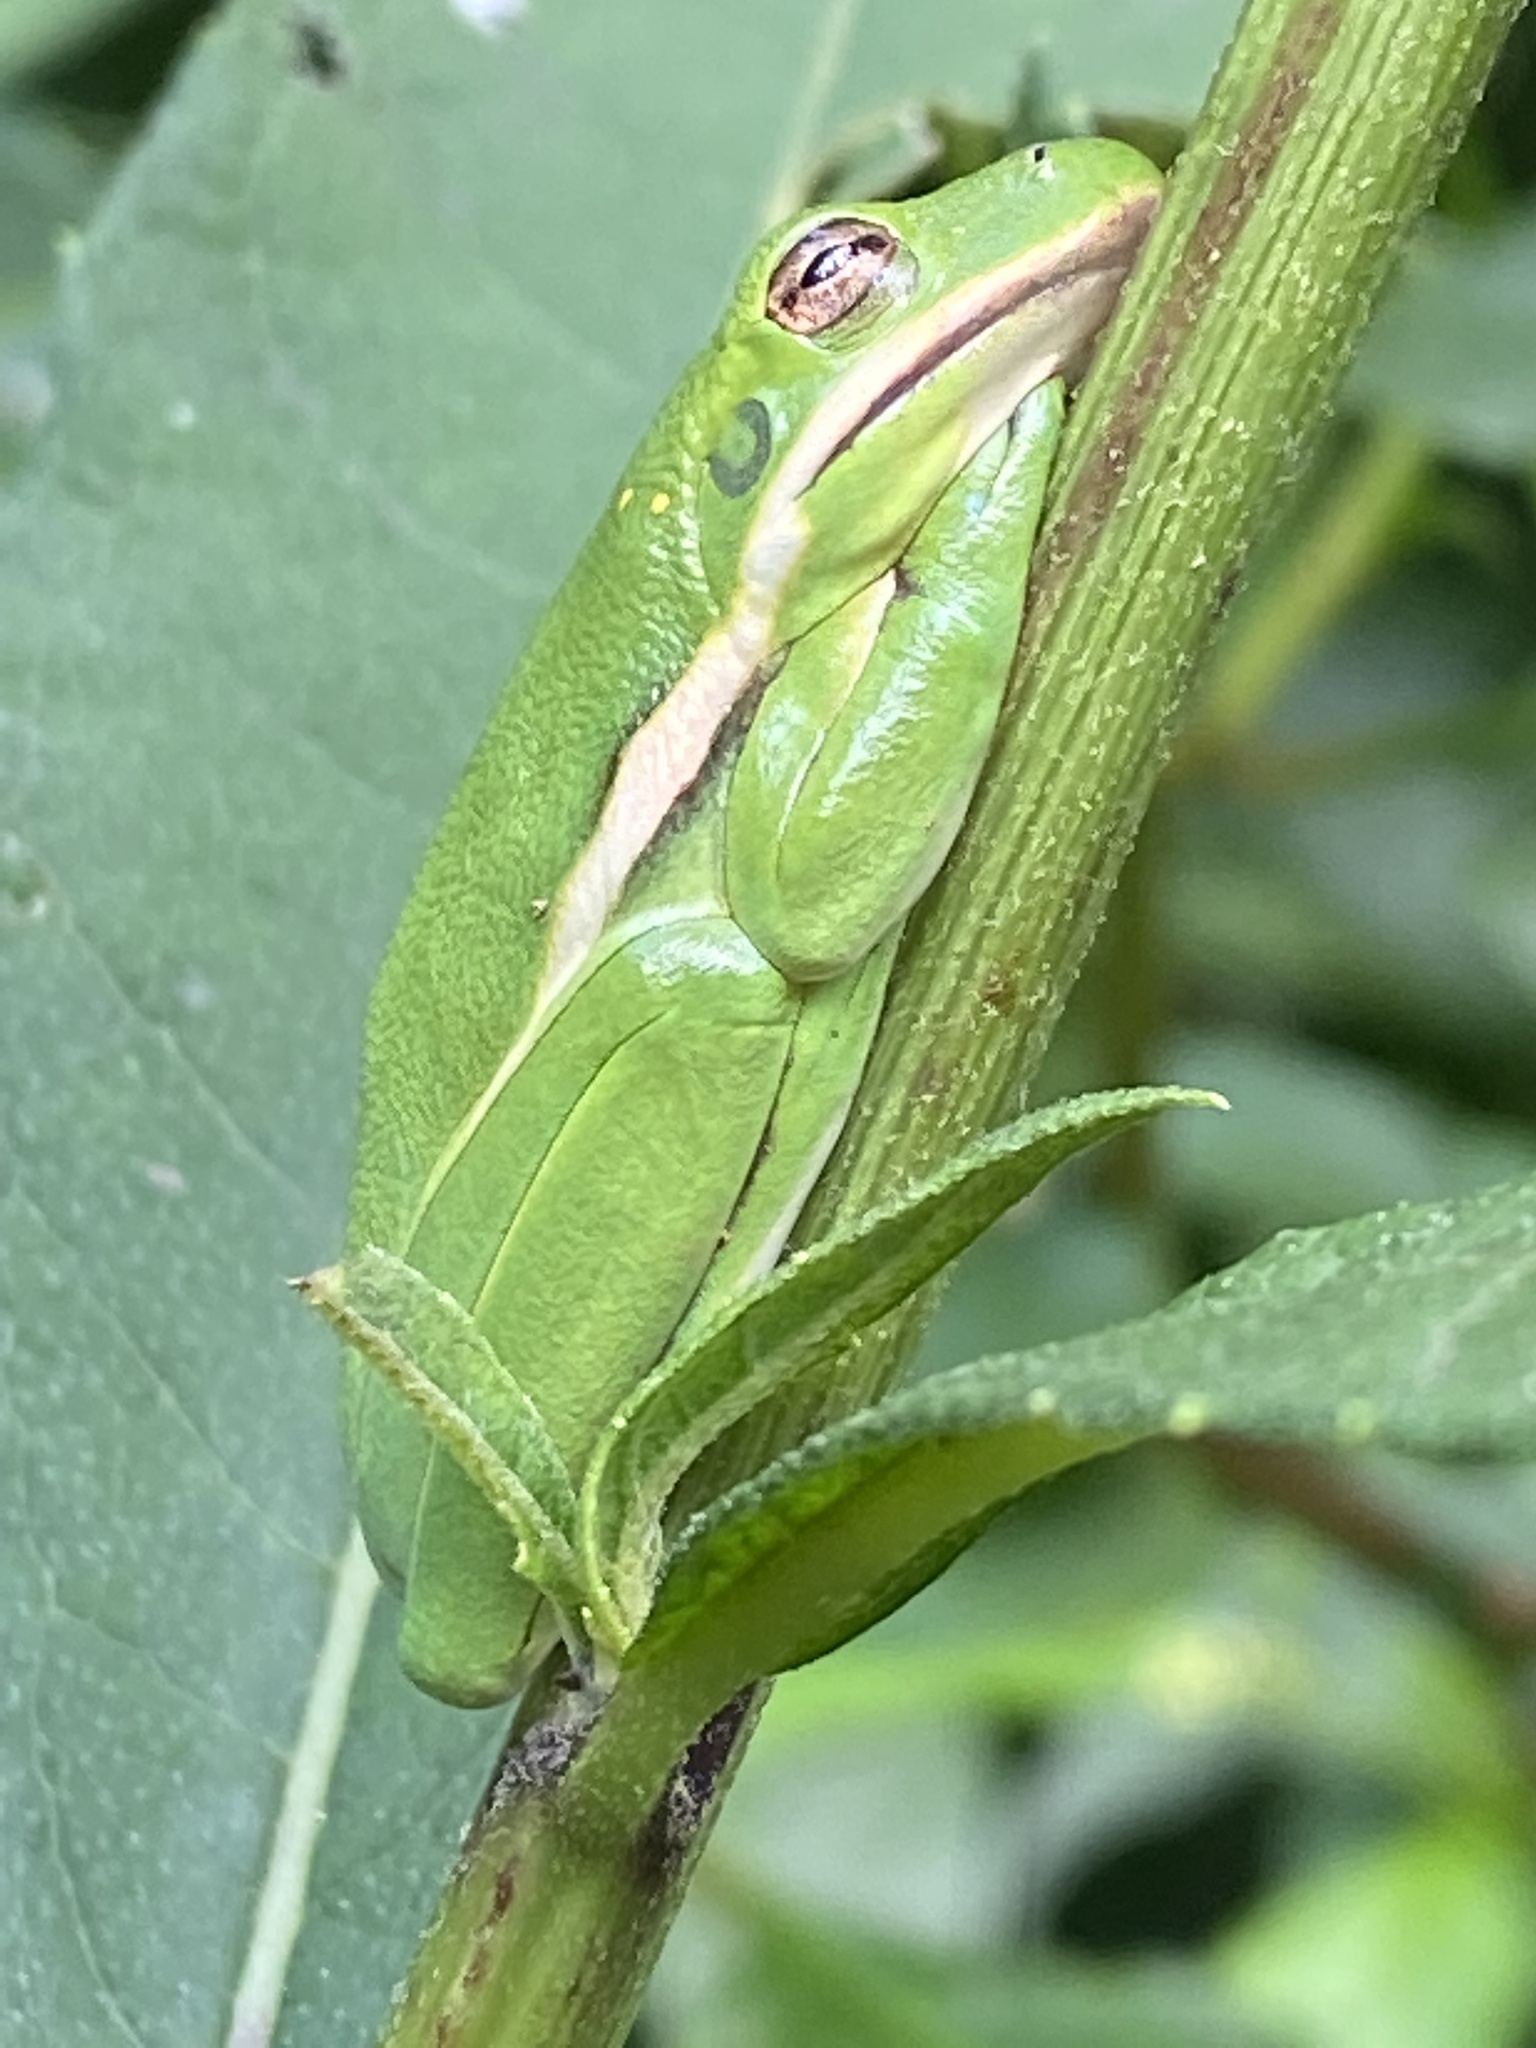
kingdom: Animalia
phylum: Chordata
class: Amphibia
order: Anura
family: Hylidae
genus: Dryophytes
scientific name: Dryophytes cinereus
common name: Green treefrog
